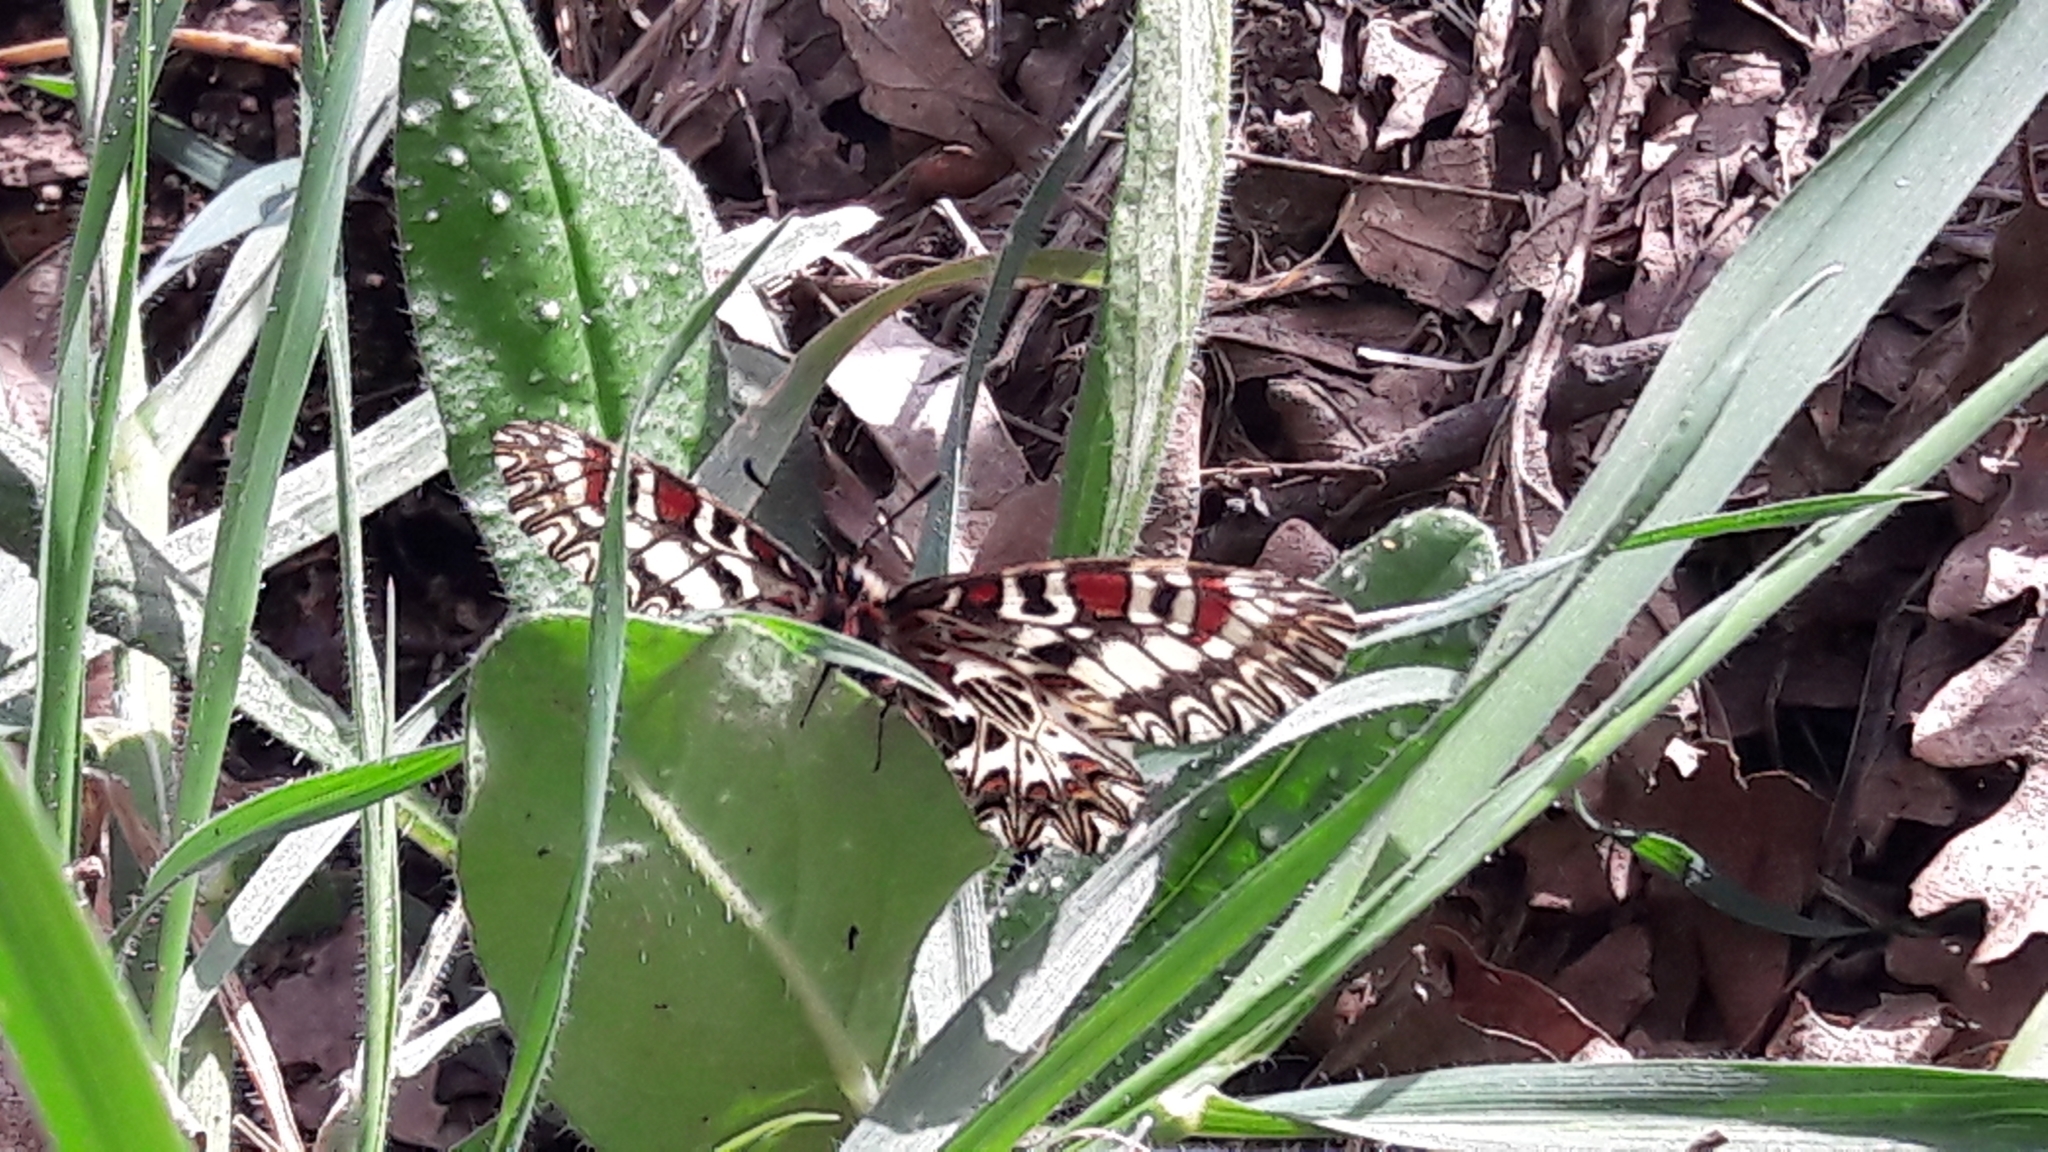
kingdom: Animalia
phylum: Arthropoda
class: Insecta
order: Lepidoptera
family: Papilionidae
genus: Zerynthia
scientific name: Zerynthia cassandra
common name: Italian festoon
